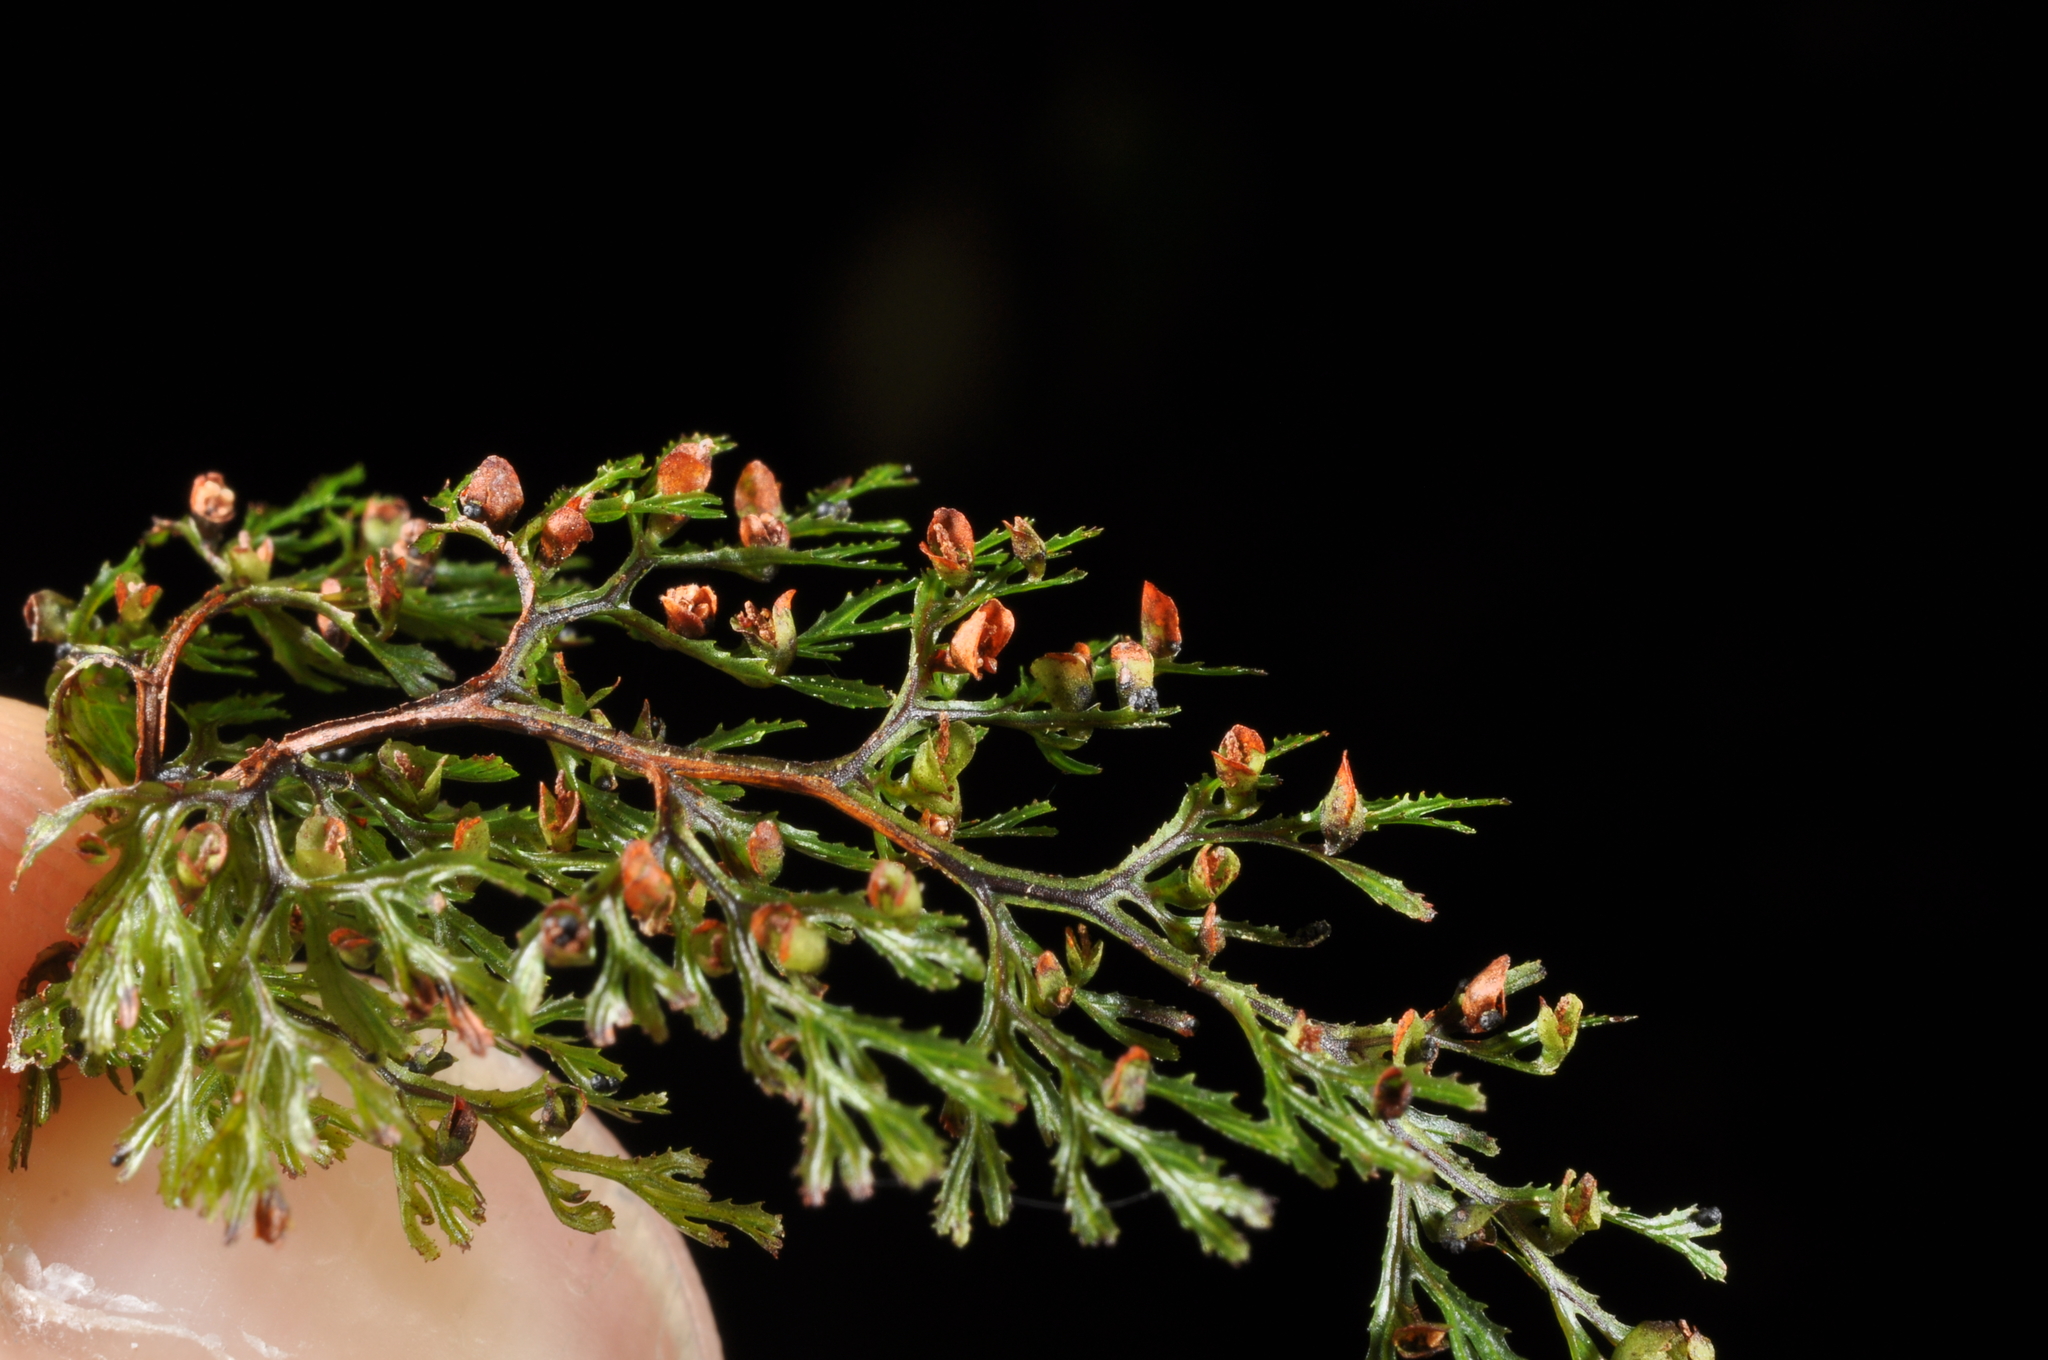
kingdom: Plantae
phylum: Tracheophyta
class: Polypodiopsida
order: Hymenophyllales
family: Hymenophyllaceae
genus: Hymenophyllum
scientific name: Hymenophyllum multifidum
